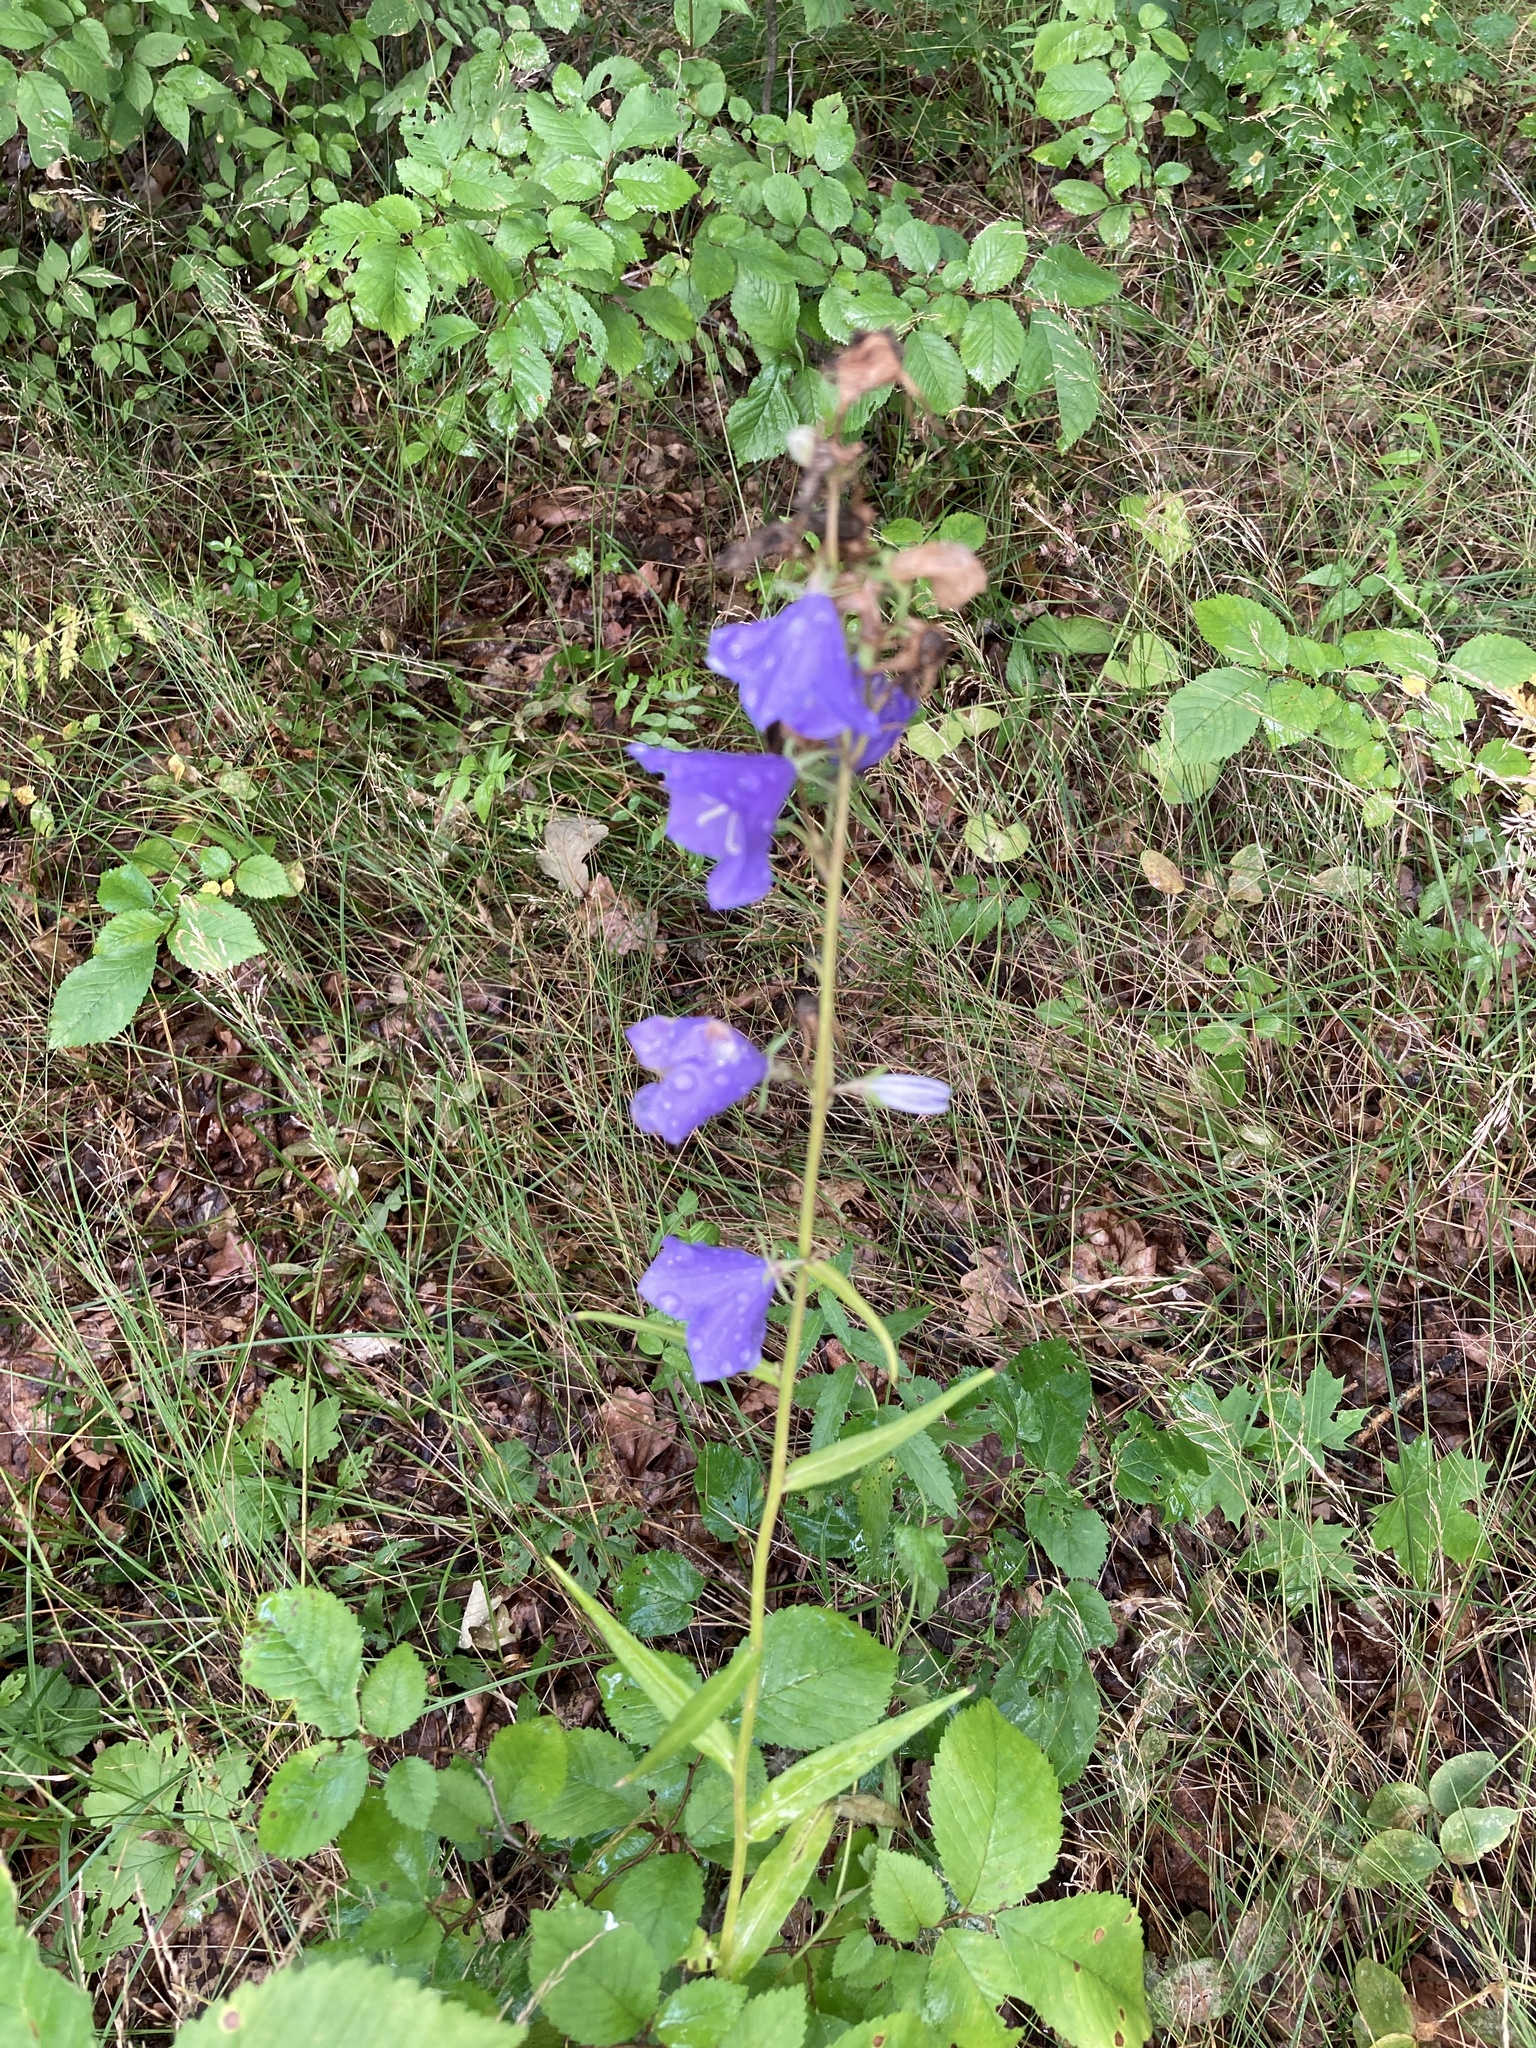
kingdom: Plantae
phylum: Tracheophyta
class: Magnoliopsida
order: Asterales
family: Campanulaceae
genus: Campanula
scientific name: Campanula persicifolia
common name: Peach-leaved bellflower
